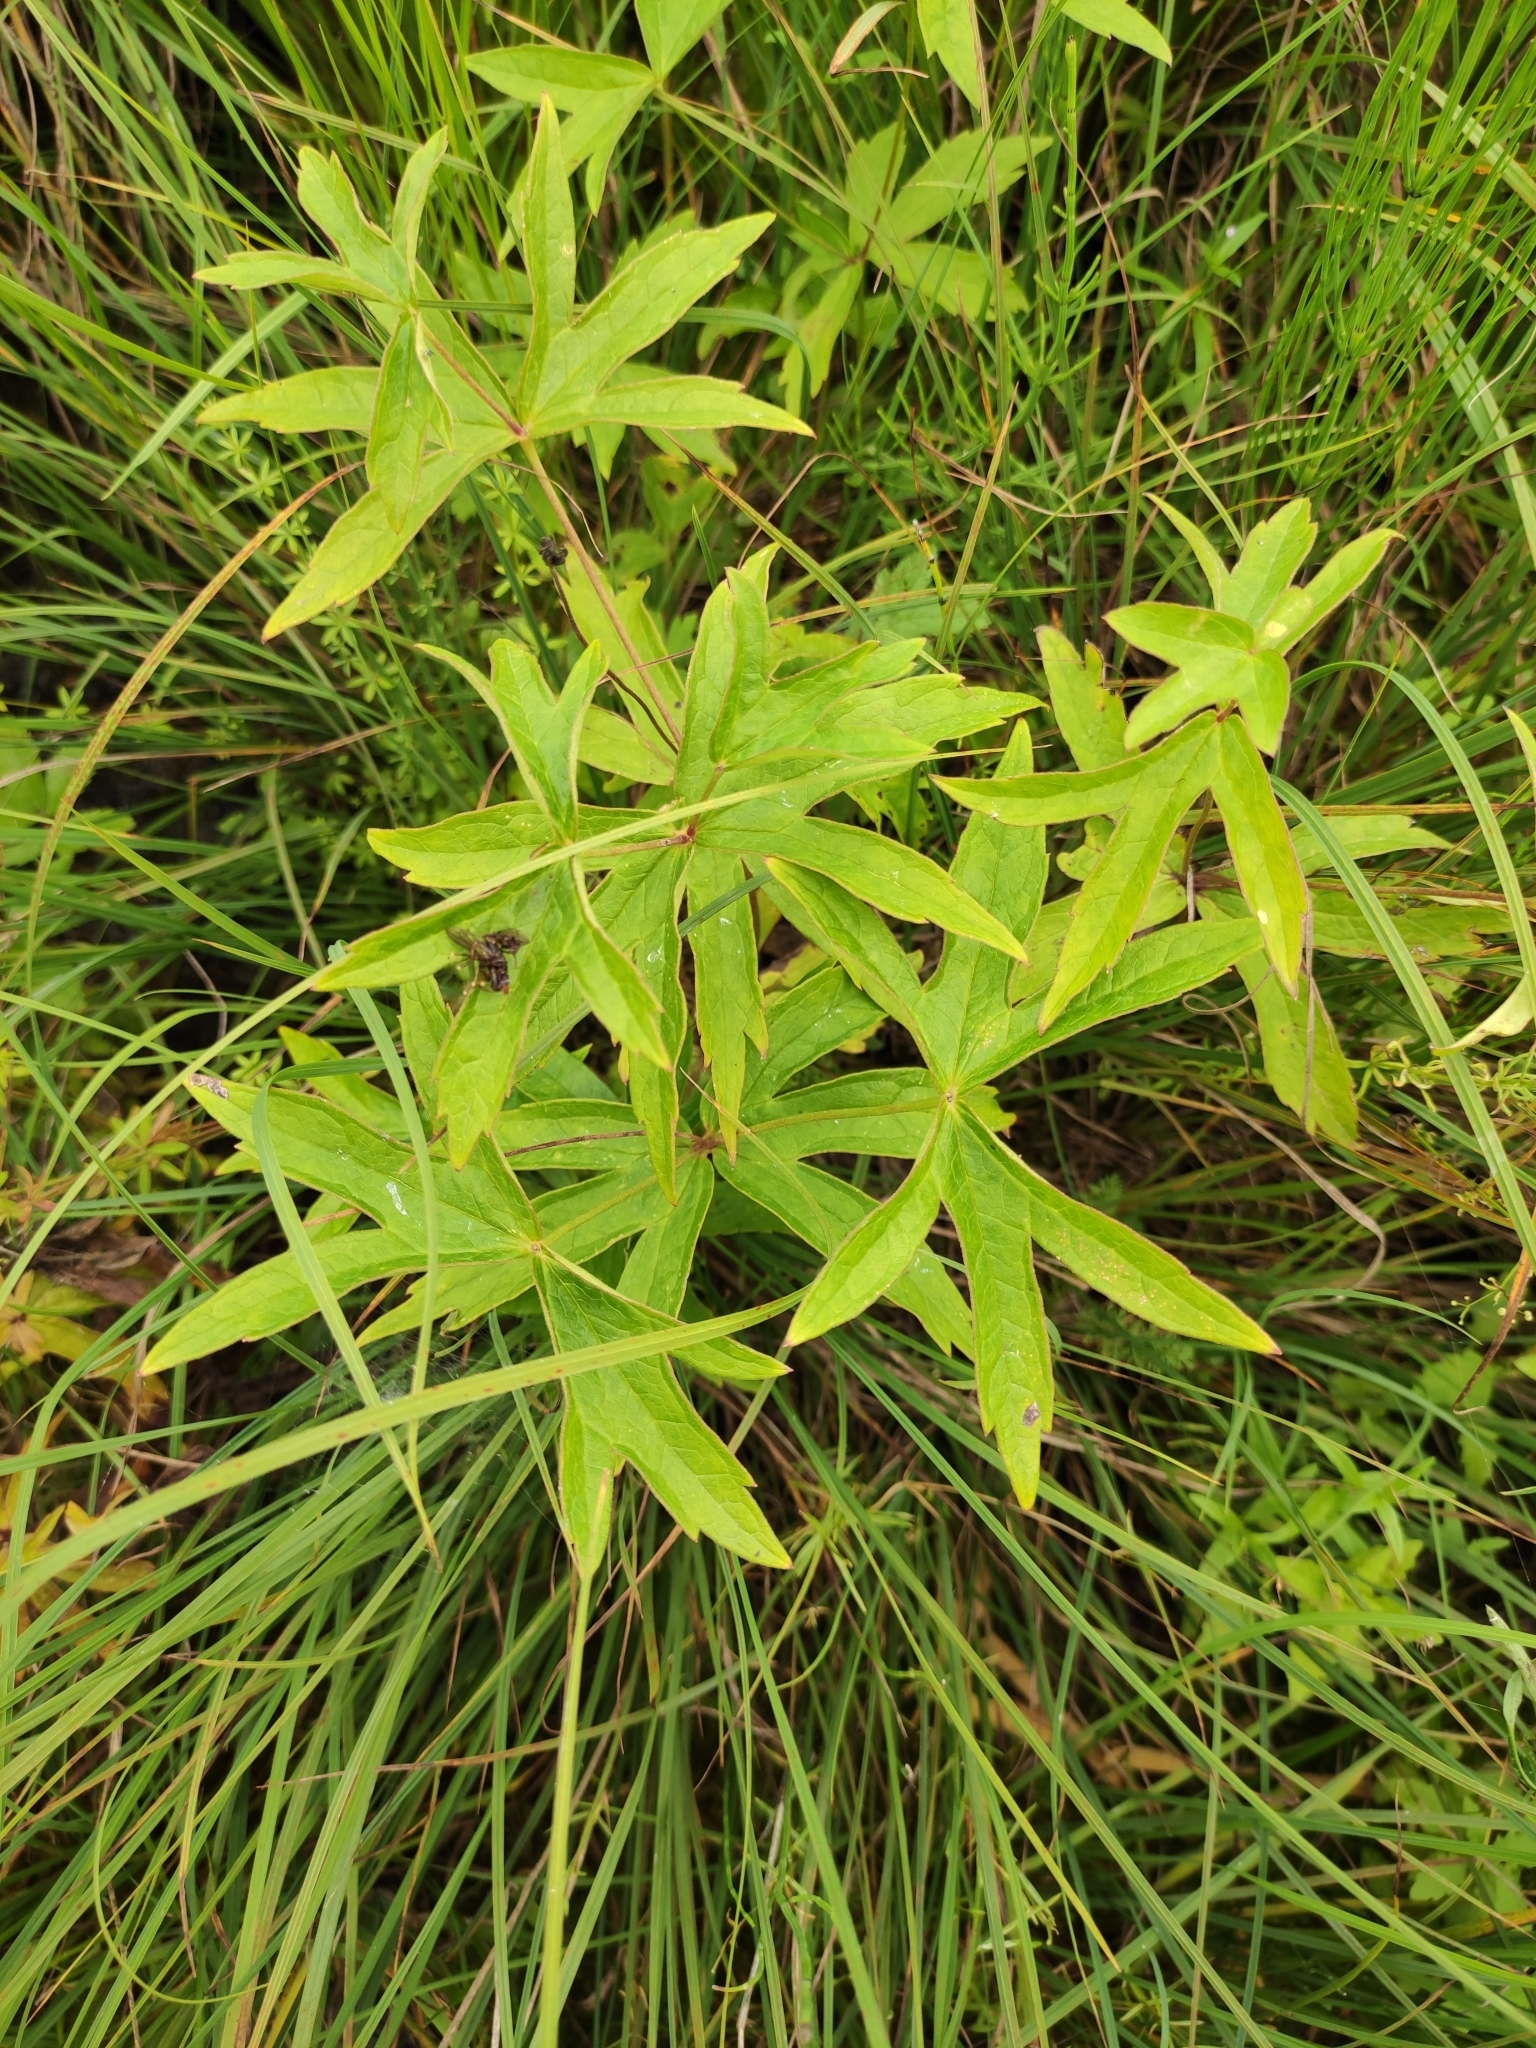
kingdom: Plantae
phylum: Tracheophyta
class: Magnoliopsida
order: Ranunculales
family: Ranunculaceae
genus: Anemonastrum
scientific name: Anemonastrum dichotomum
